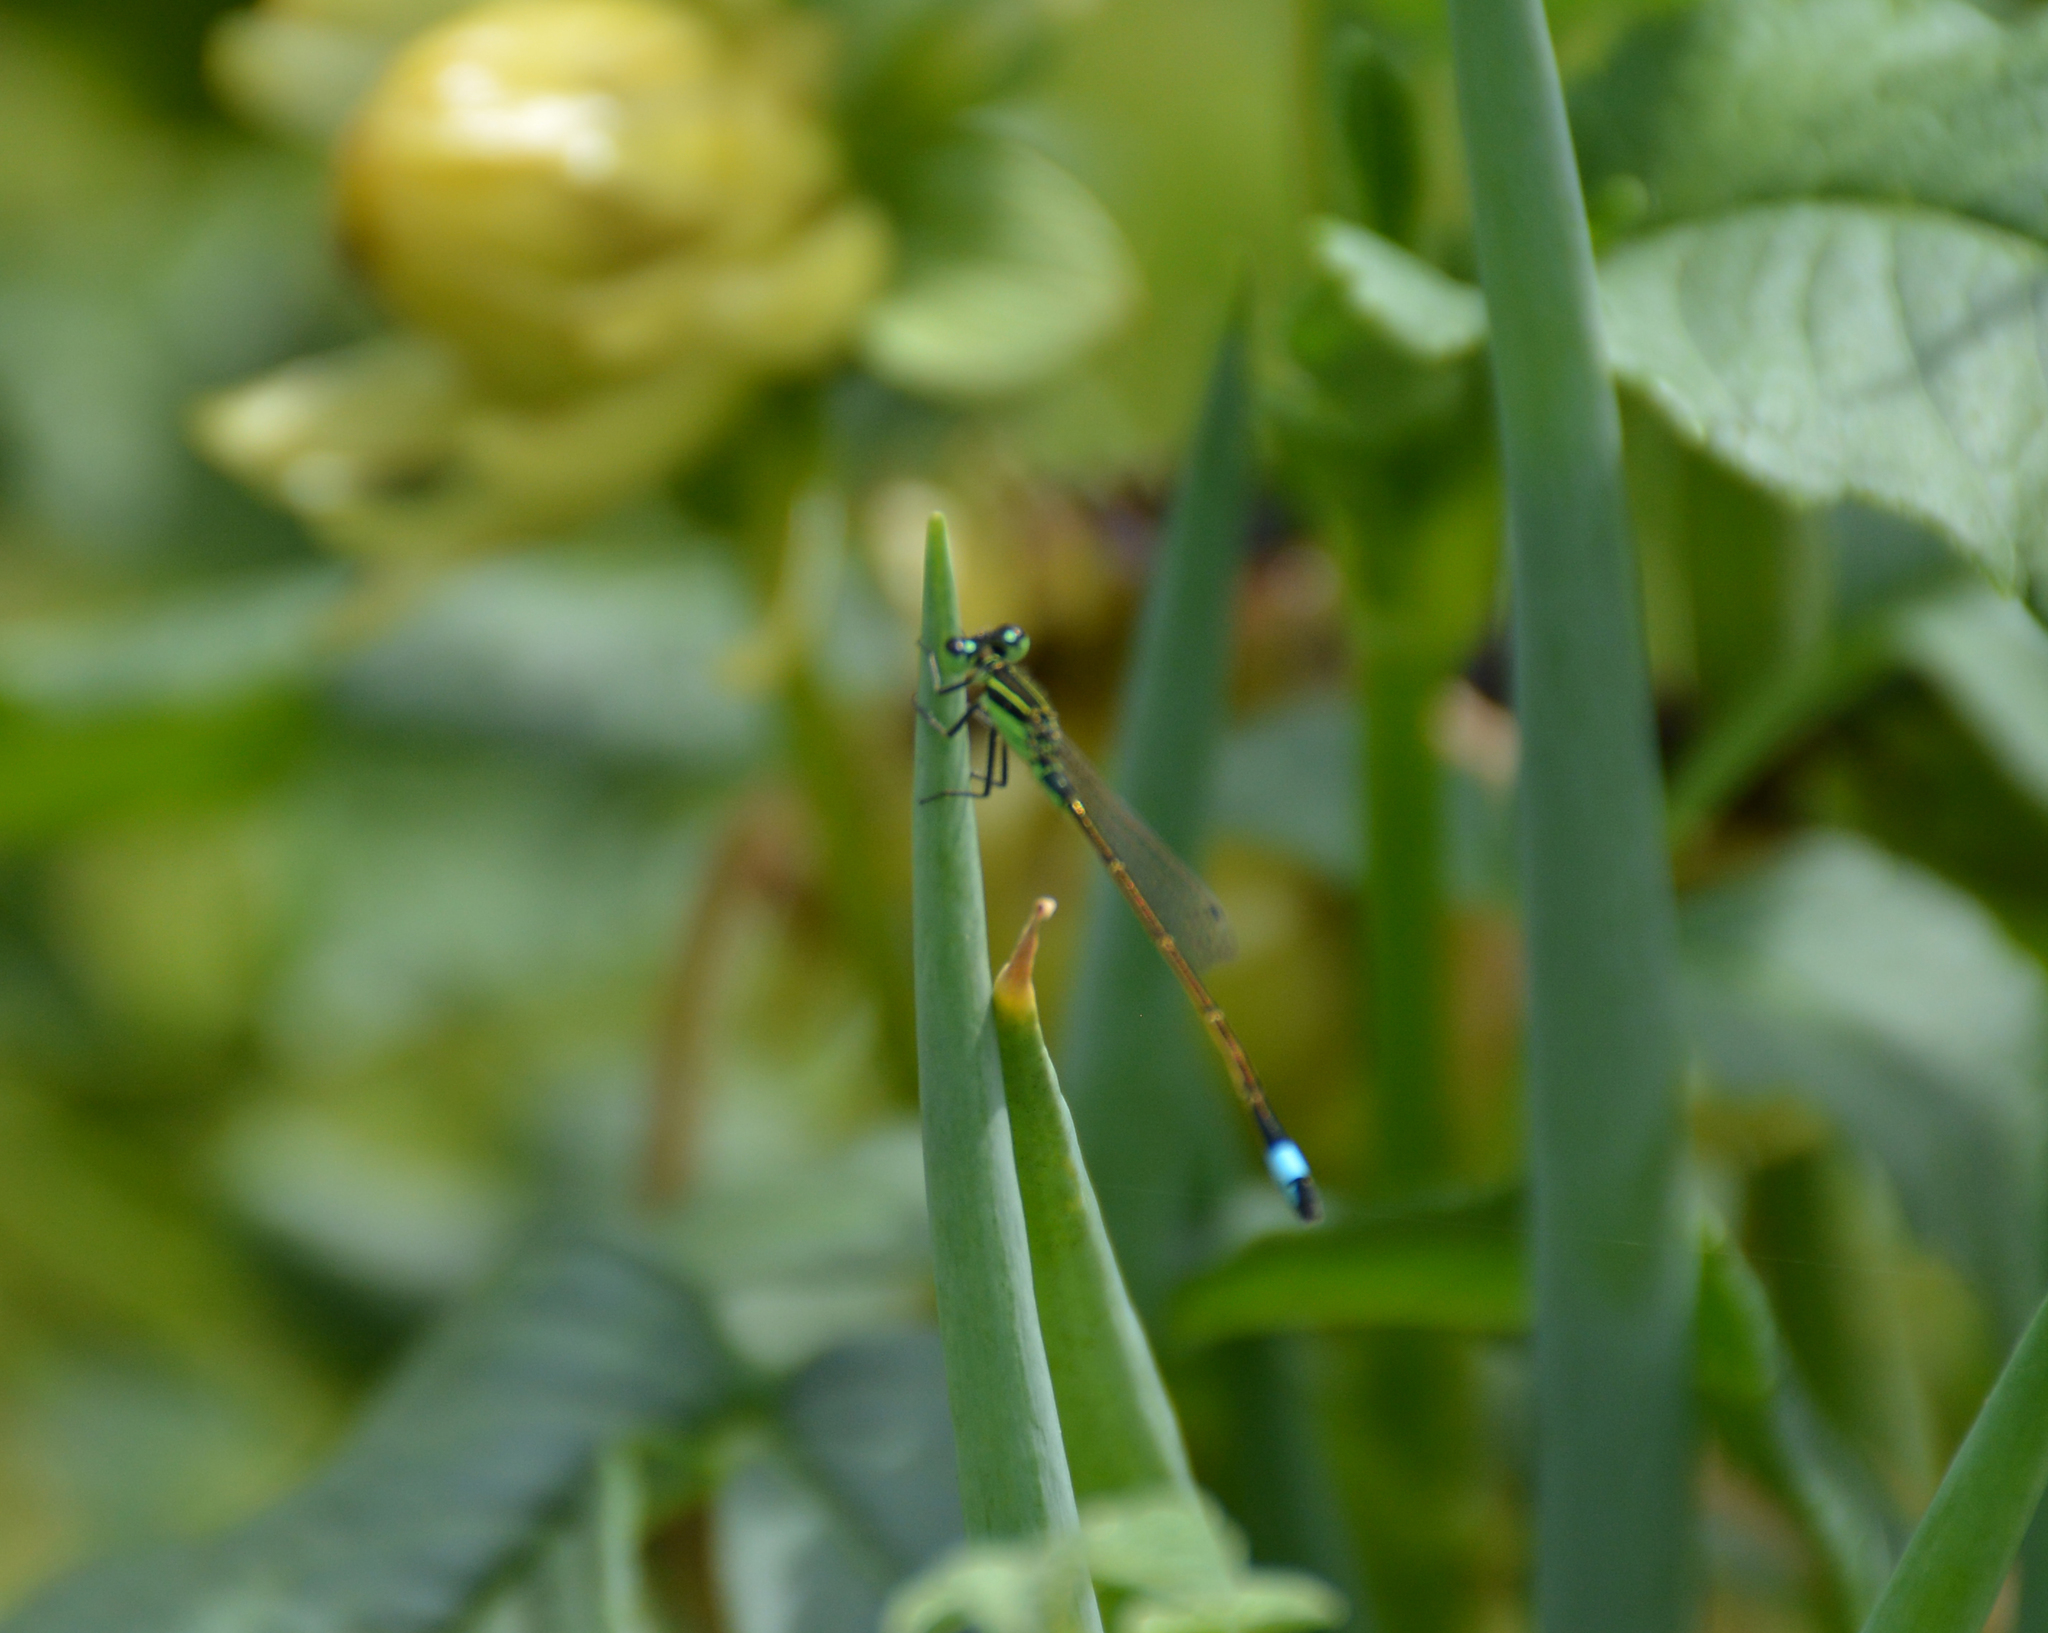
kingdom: Animalia
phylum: Arthropoda
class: Insecta
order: Odonata
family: Coenagrionidae
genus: Ischnura
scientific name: Ischnura ramburii
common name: Rambur's forktail
